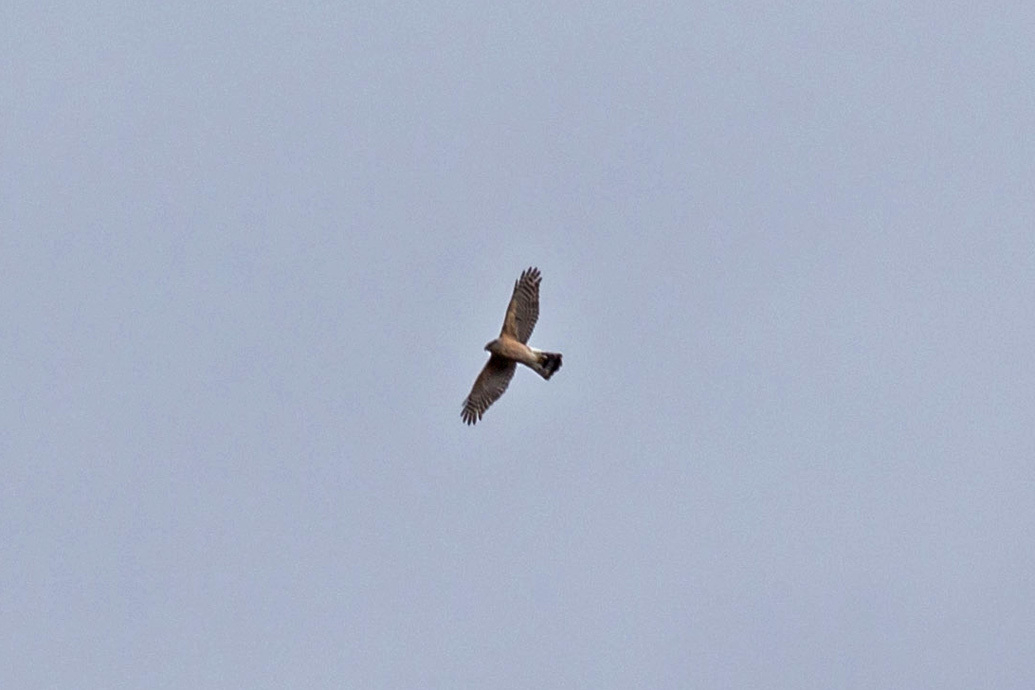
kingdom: Animalia
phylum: Chordata
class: Aves
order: Accipitriformes
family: Accipitridae
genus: Accipiter
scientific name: Accipiter cooperii
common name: Cooper's hawk
